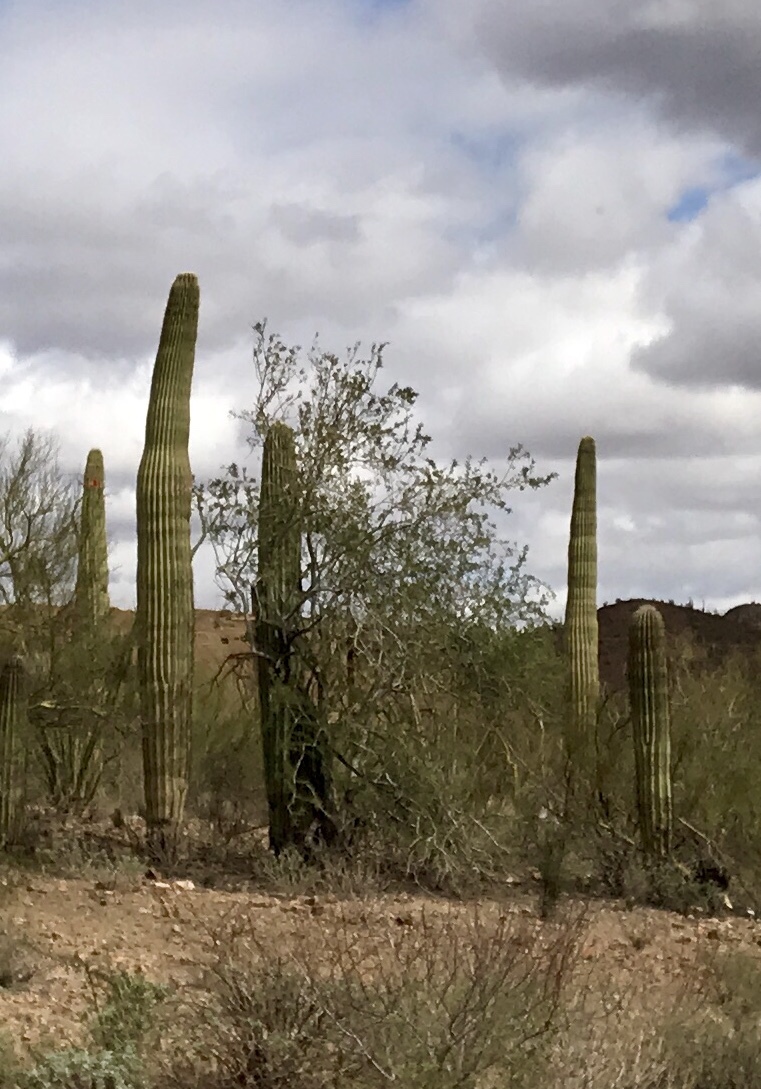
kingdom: Plantae
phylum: Tracheophyta
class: Magnoliopsida
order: Caryophyllales
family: Cactaceae
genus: Carnegiea
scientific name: Carnegiea gigantea
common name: Saguaro
